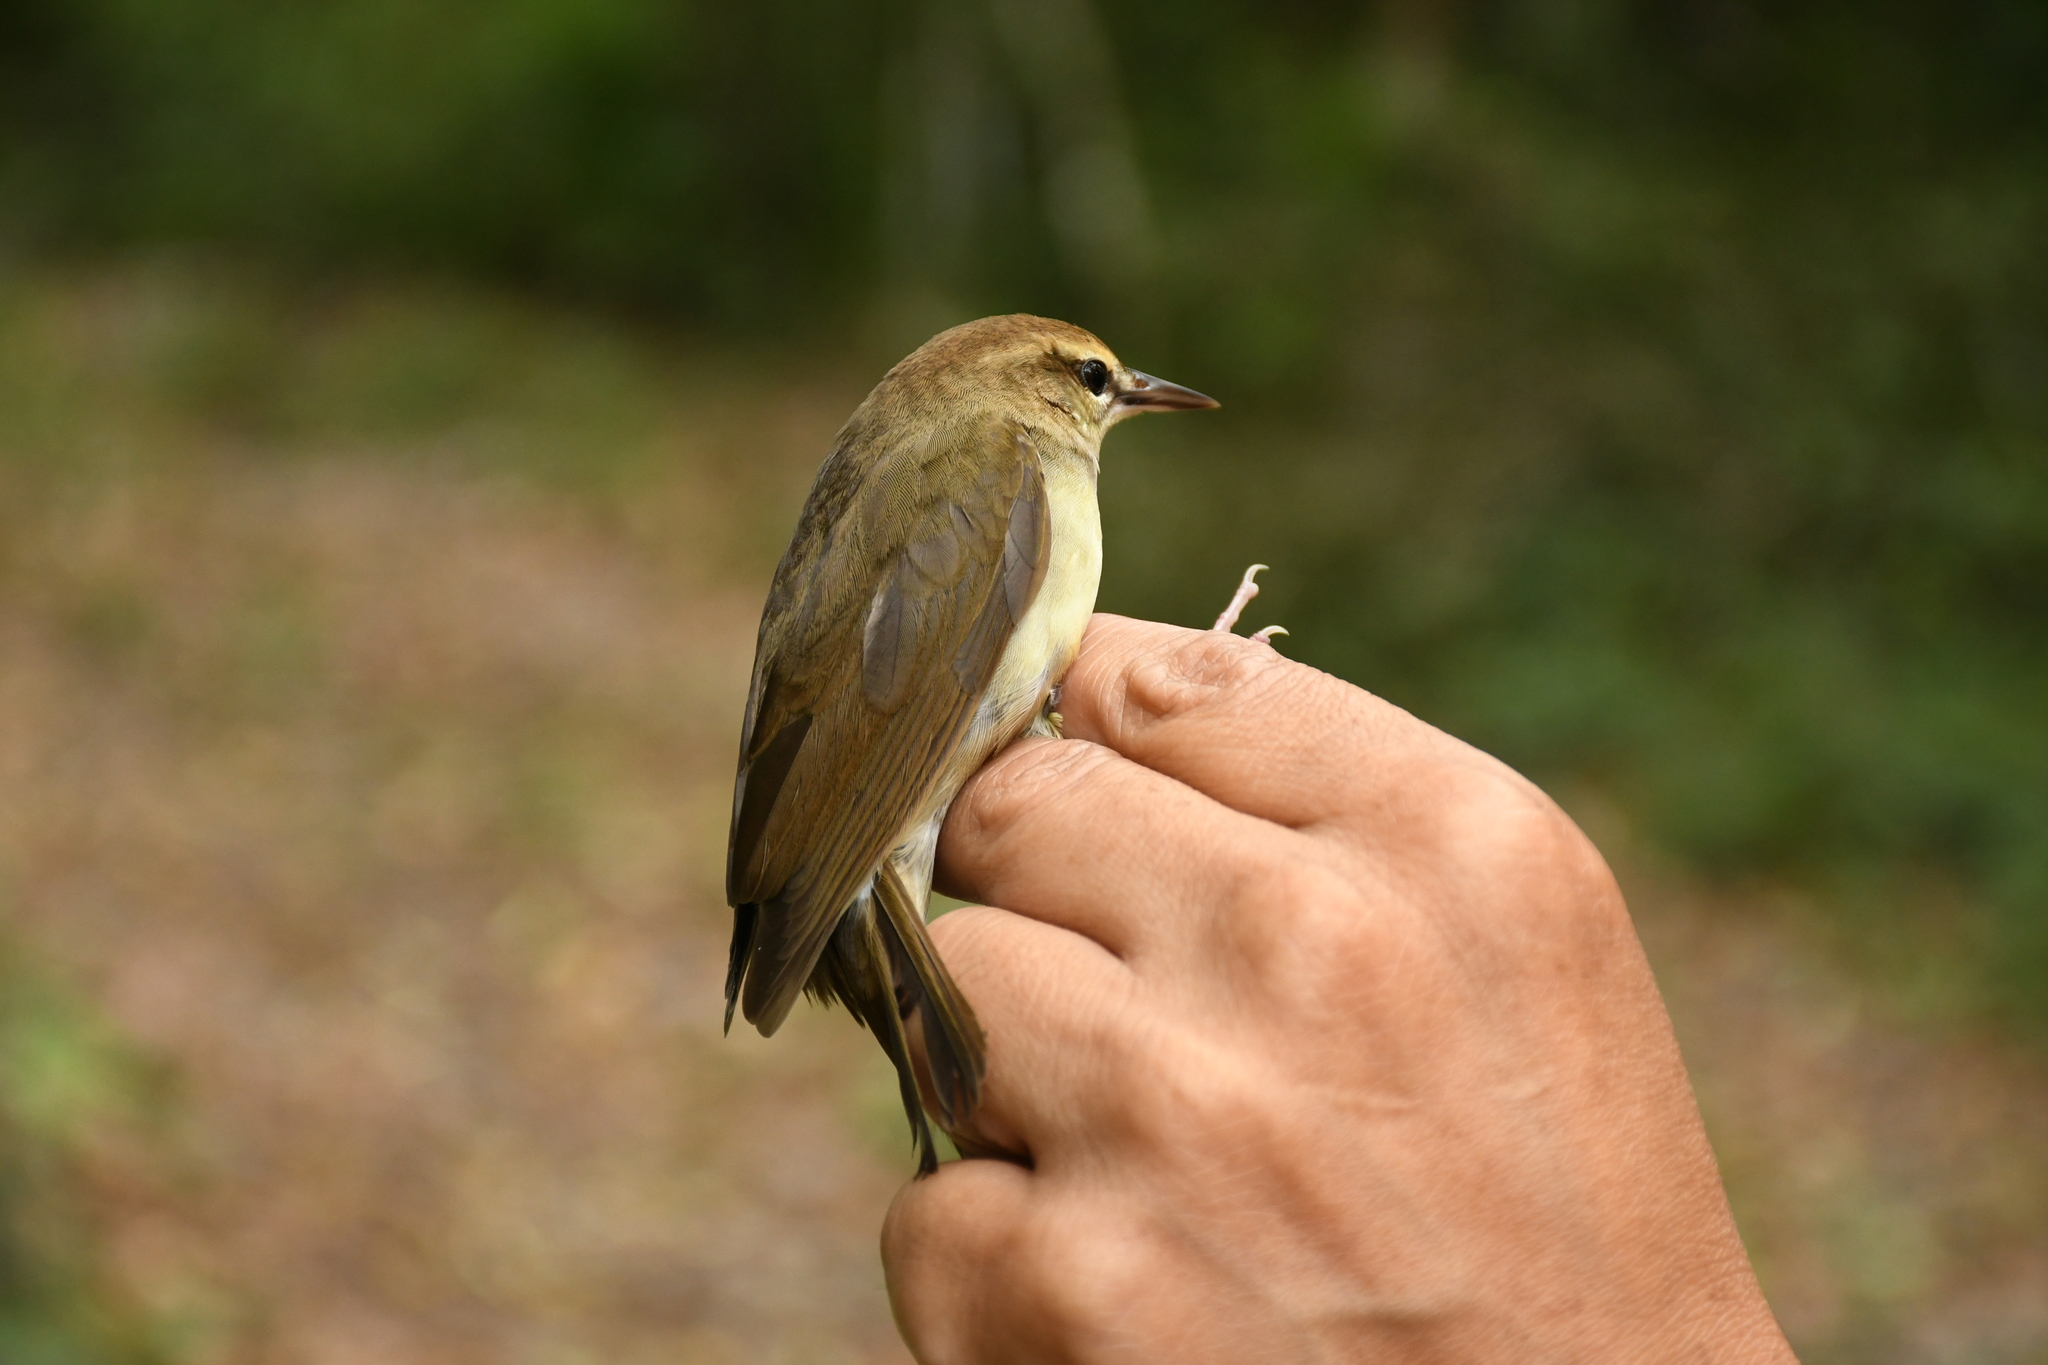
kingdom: Animalia
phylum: Chordata
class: Aves
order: Passeriformes
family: Parulidae
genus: Limnothlypis
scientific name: Limnothlypis swainsonii
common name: Swainson's warbler
